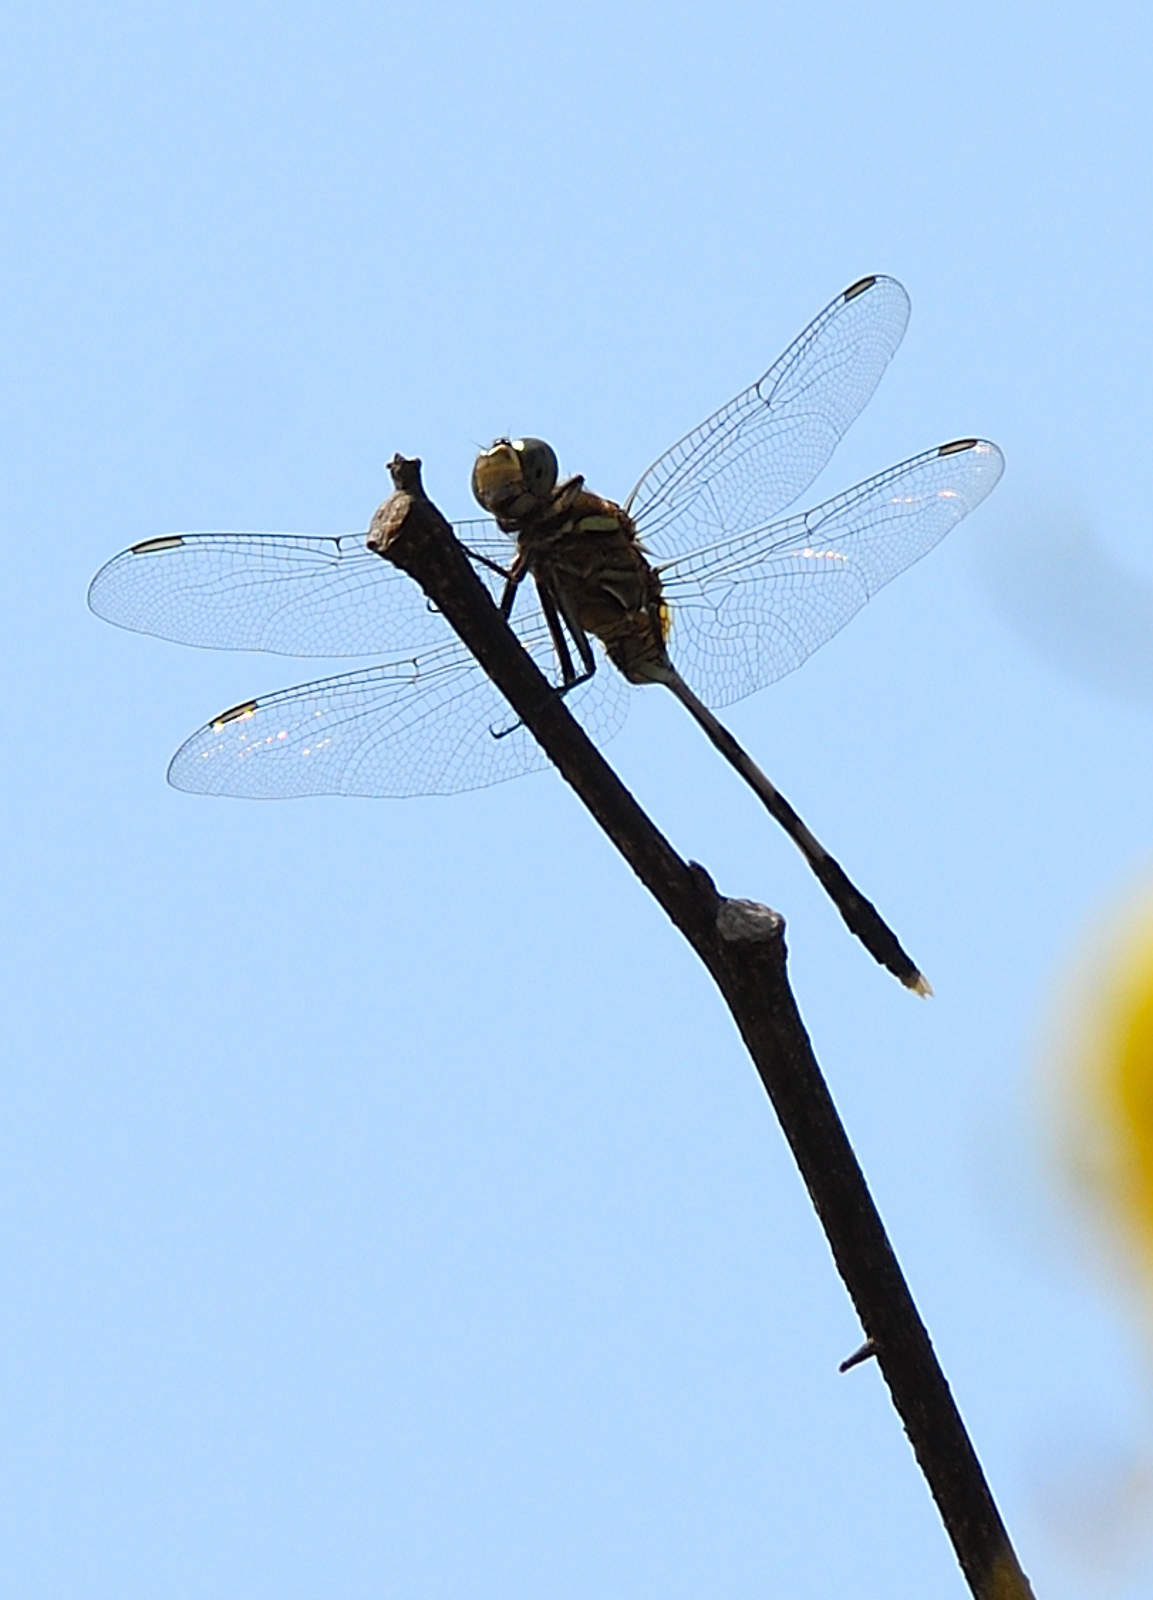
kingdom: Animalia
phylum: Arthropoda
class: Insecta
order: Odonata
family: Libellulidae
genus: Orthetrum
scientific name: Orthetrum sabina
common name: Slender skimmer
